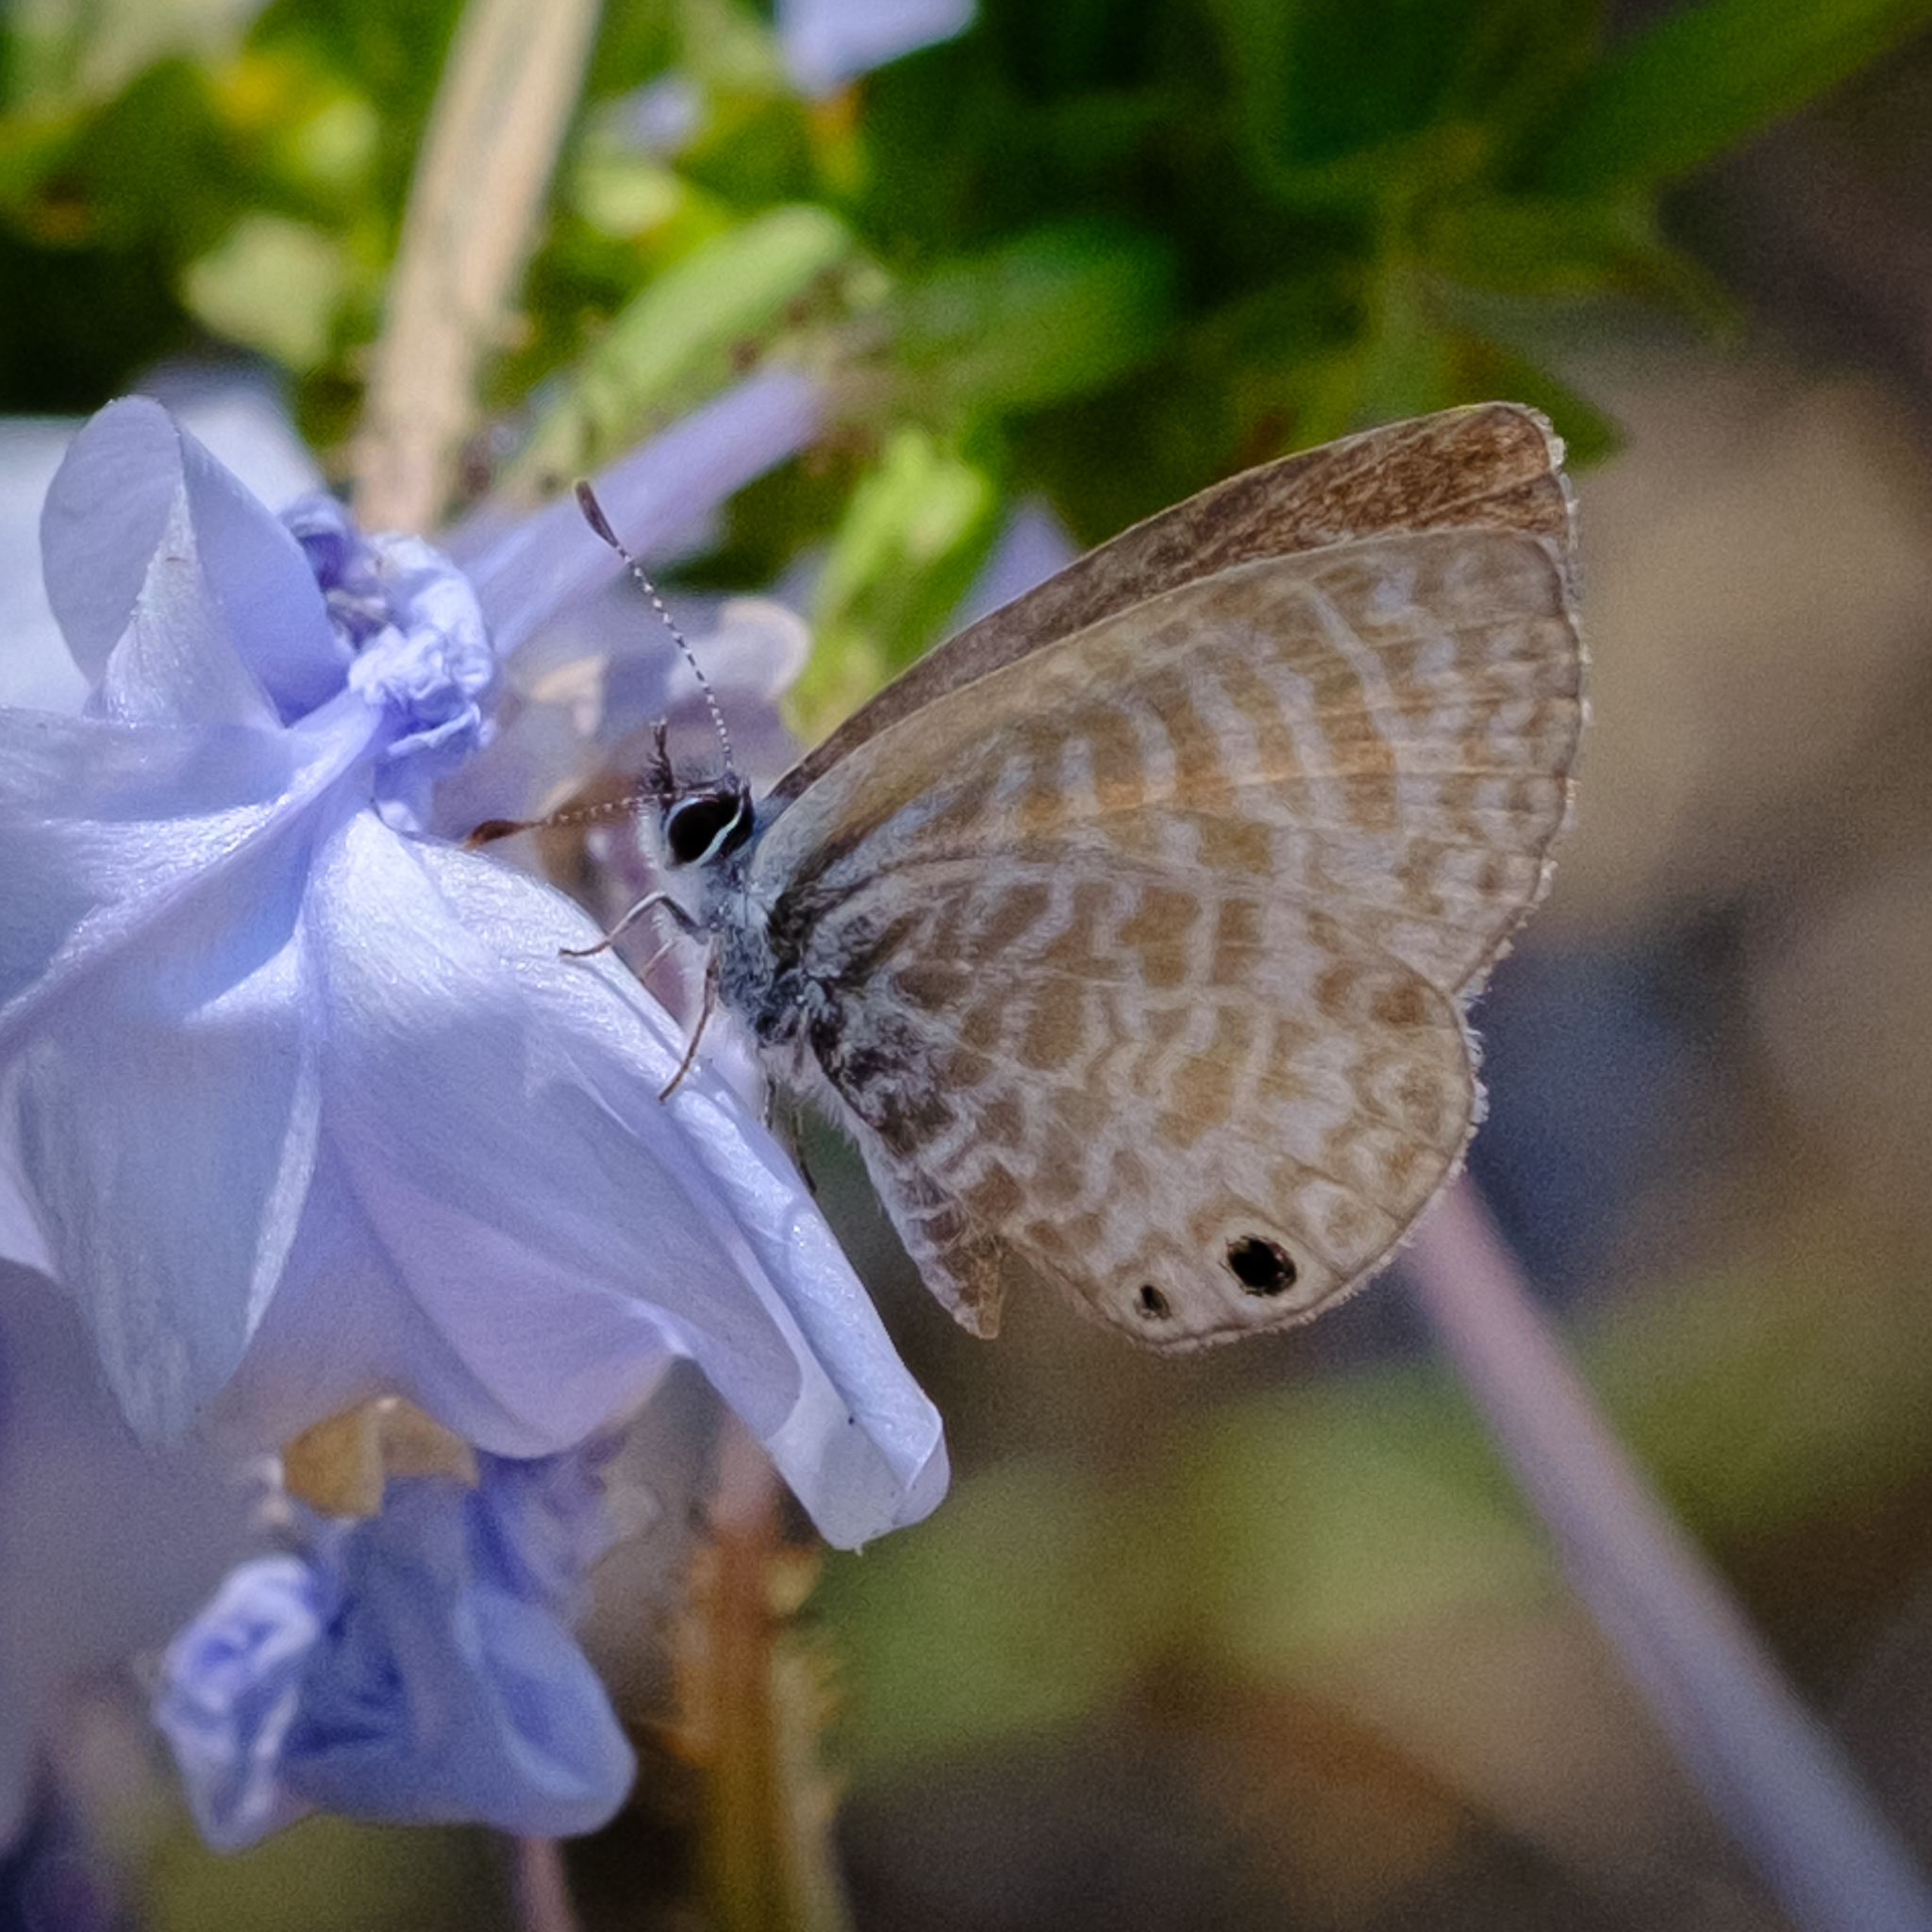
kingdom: Animalia
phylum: Arthropoda
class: Insecta
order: Lepidoptera
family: Lycaenidae
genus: Leptotes
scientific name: Leptotes marina
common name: Marine blue
